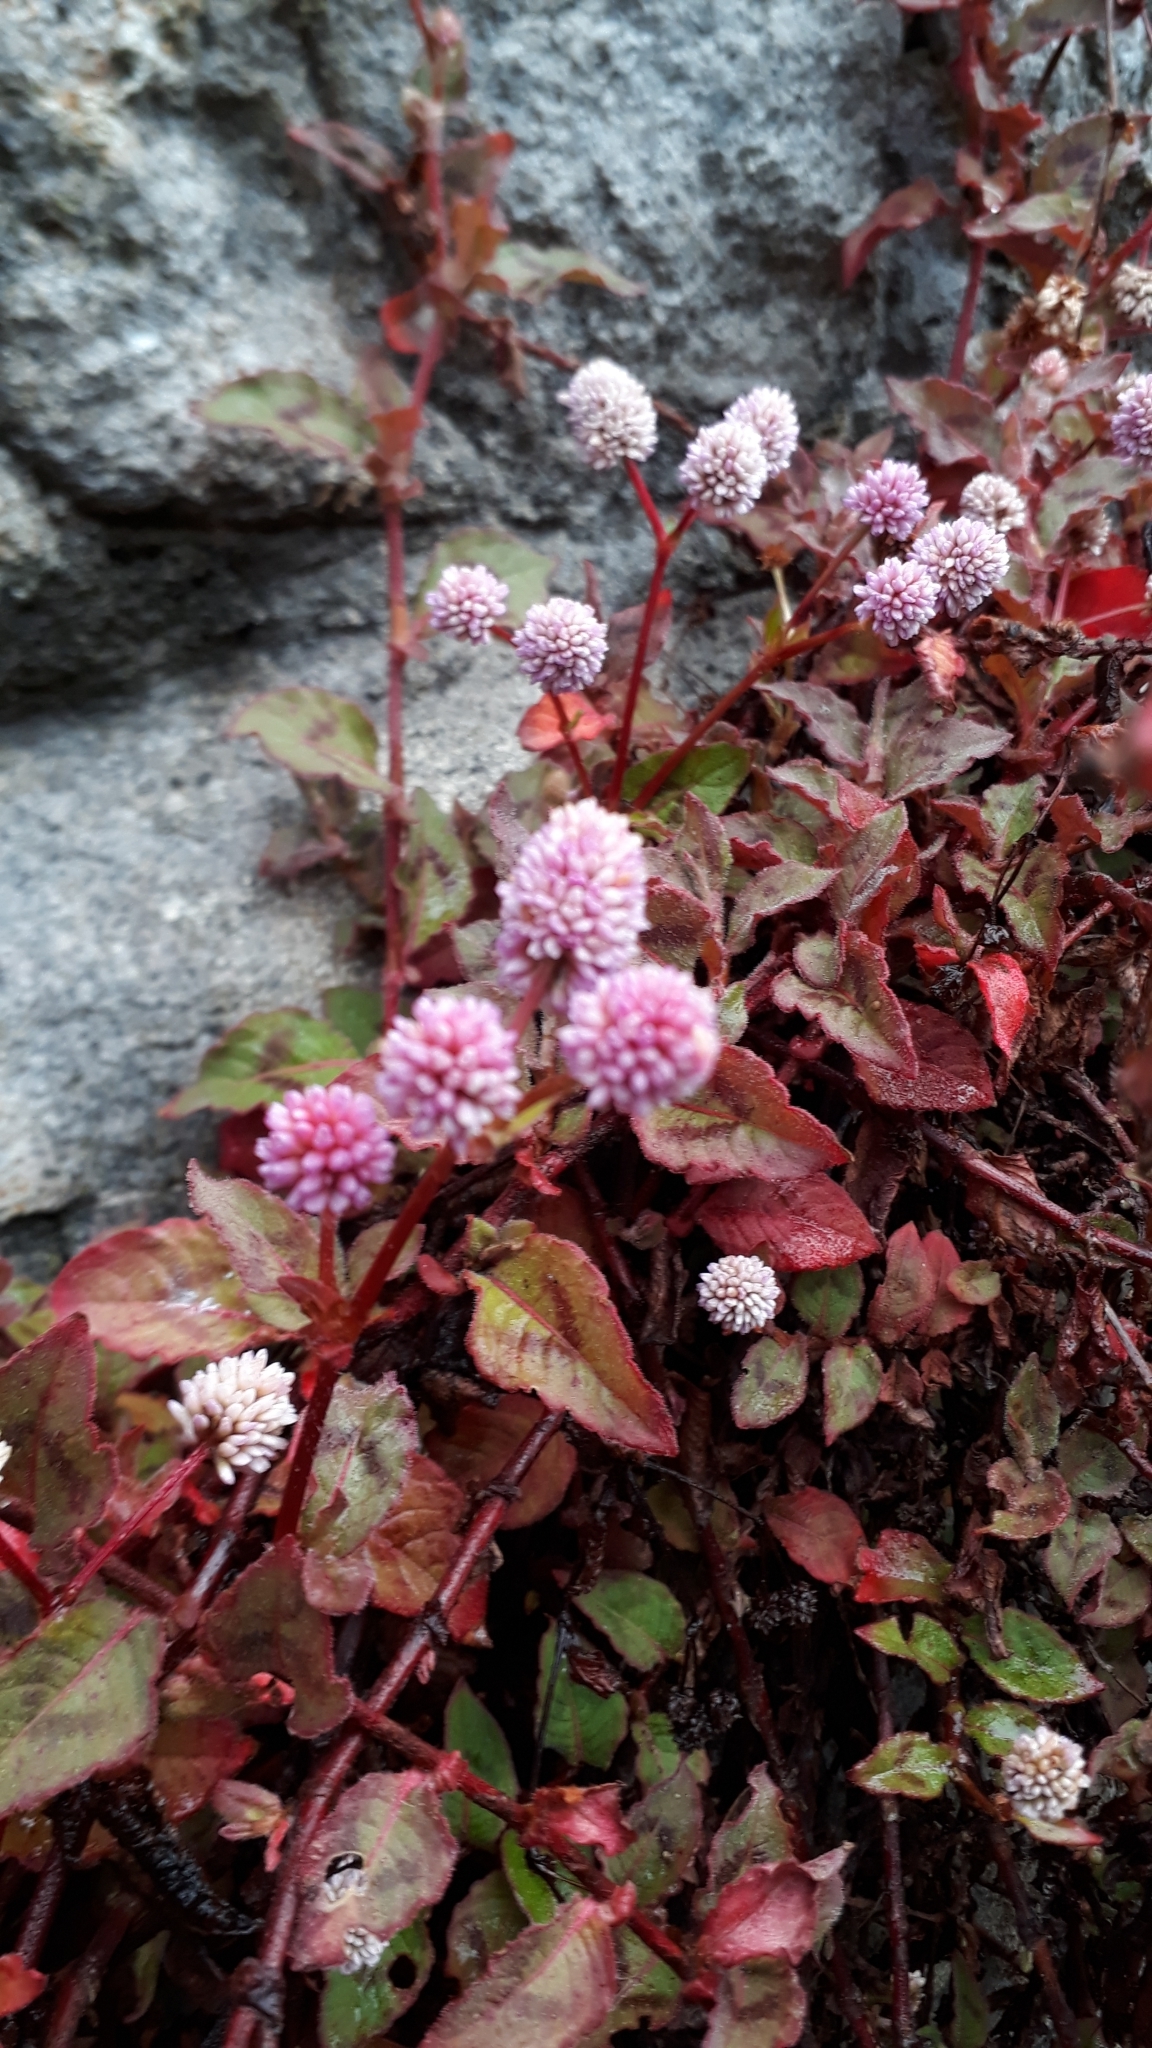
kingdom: Plantae
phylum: Tracheophyta
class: Magnoliopsida
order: Caryophyllales
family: Polygonaceae
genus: Persicaria
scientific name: Persicaria capitata
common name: Pinkhead smartweed
